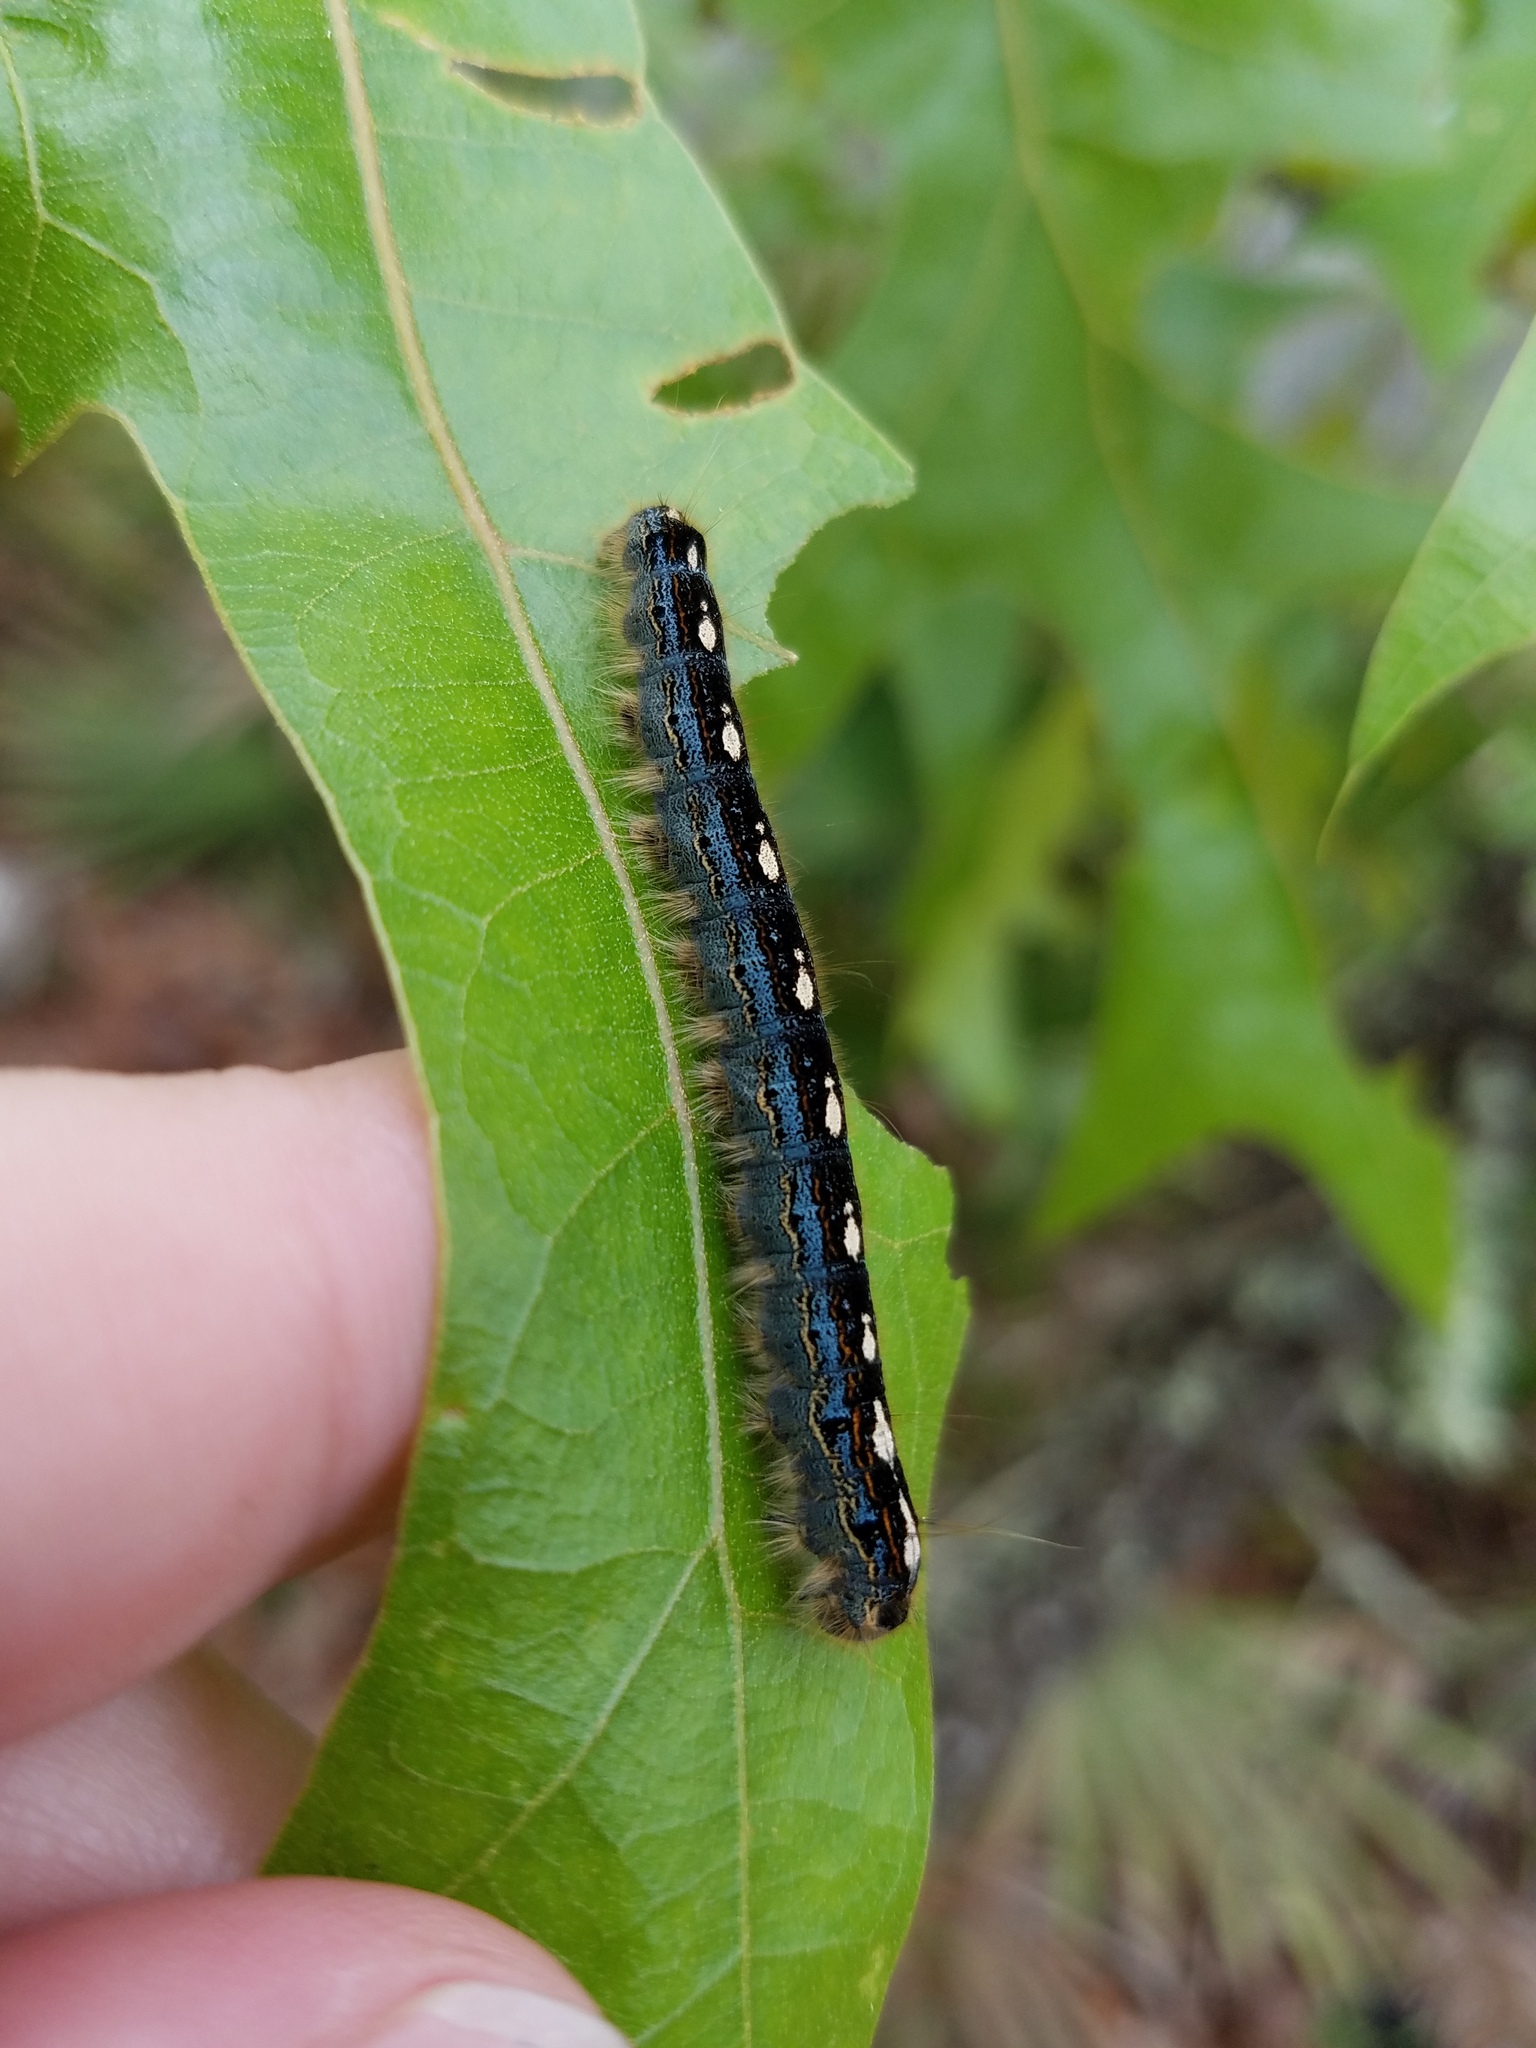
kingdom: Animalia
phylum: Arthropoda
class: Insecta
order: Lepidoptera
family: Lasiocampidae
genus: Malacosoma
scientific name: Malacosoma disstria
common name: Forest tent caterpillar
